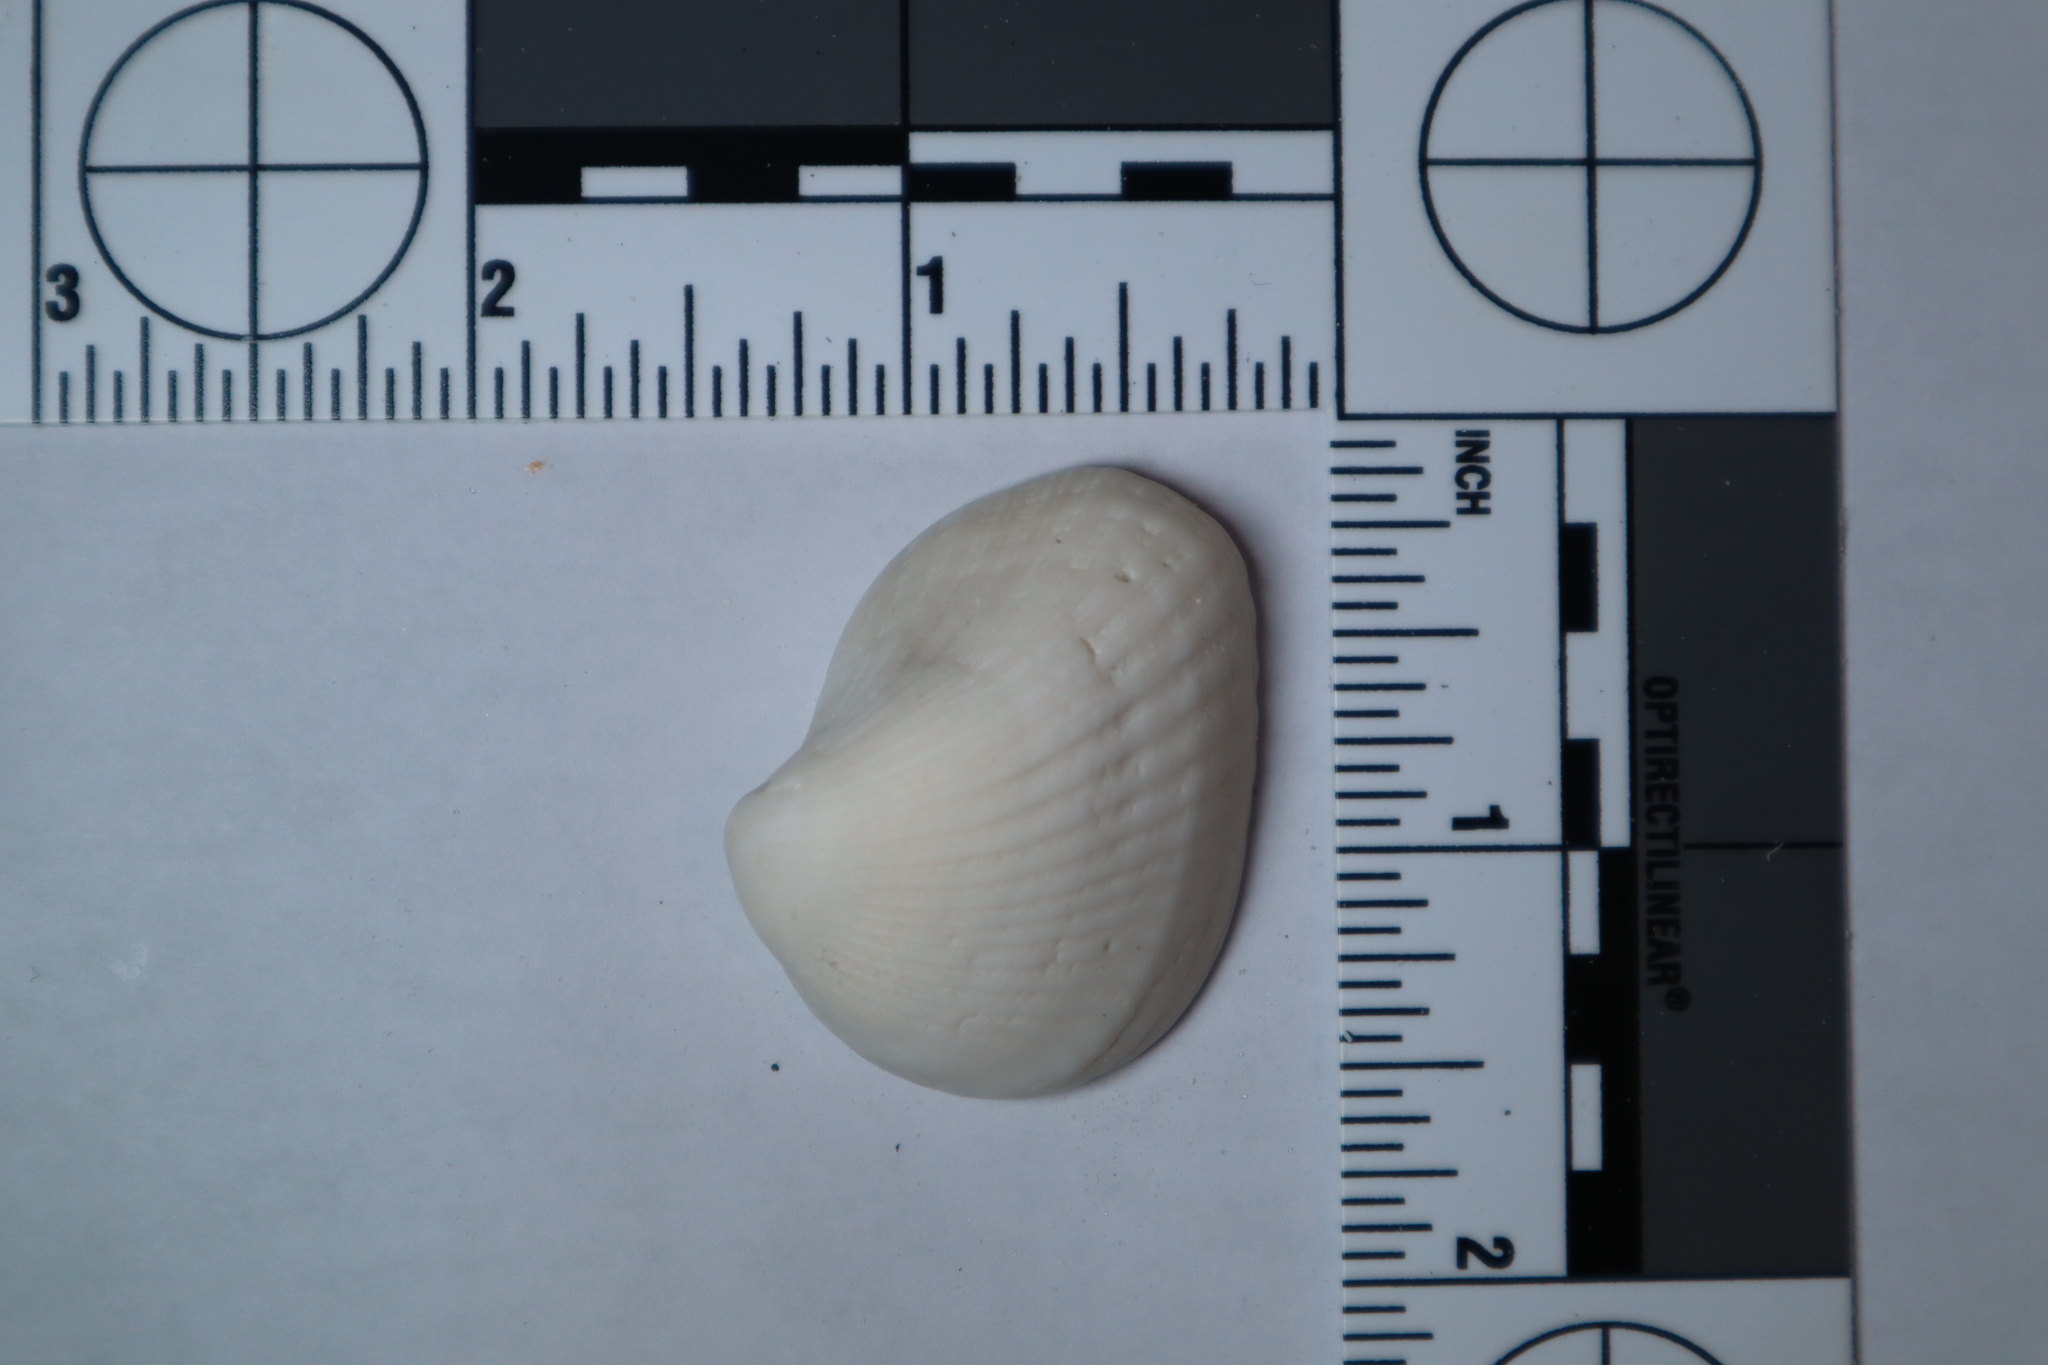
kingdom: Animalia
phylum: Mollusca
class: Bivalvia
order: Arcida
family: Noetiidae
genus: Noetia
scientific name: Noetia ponderosa
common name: Ponderous ark
